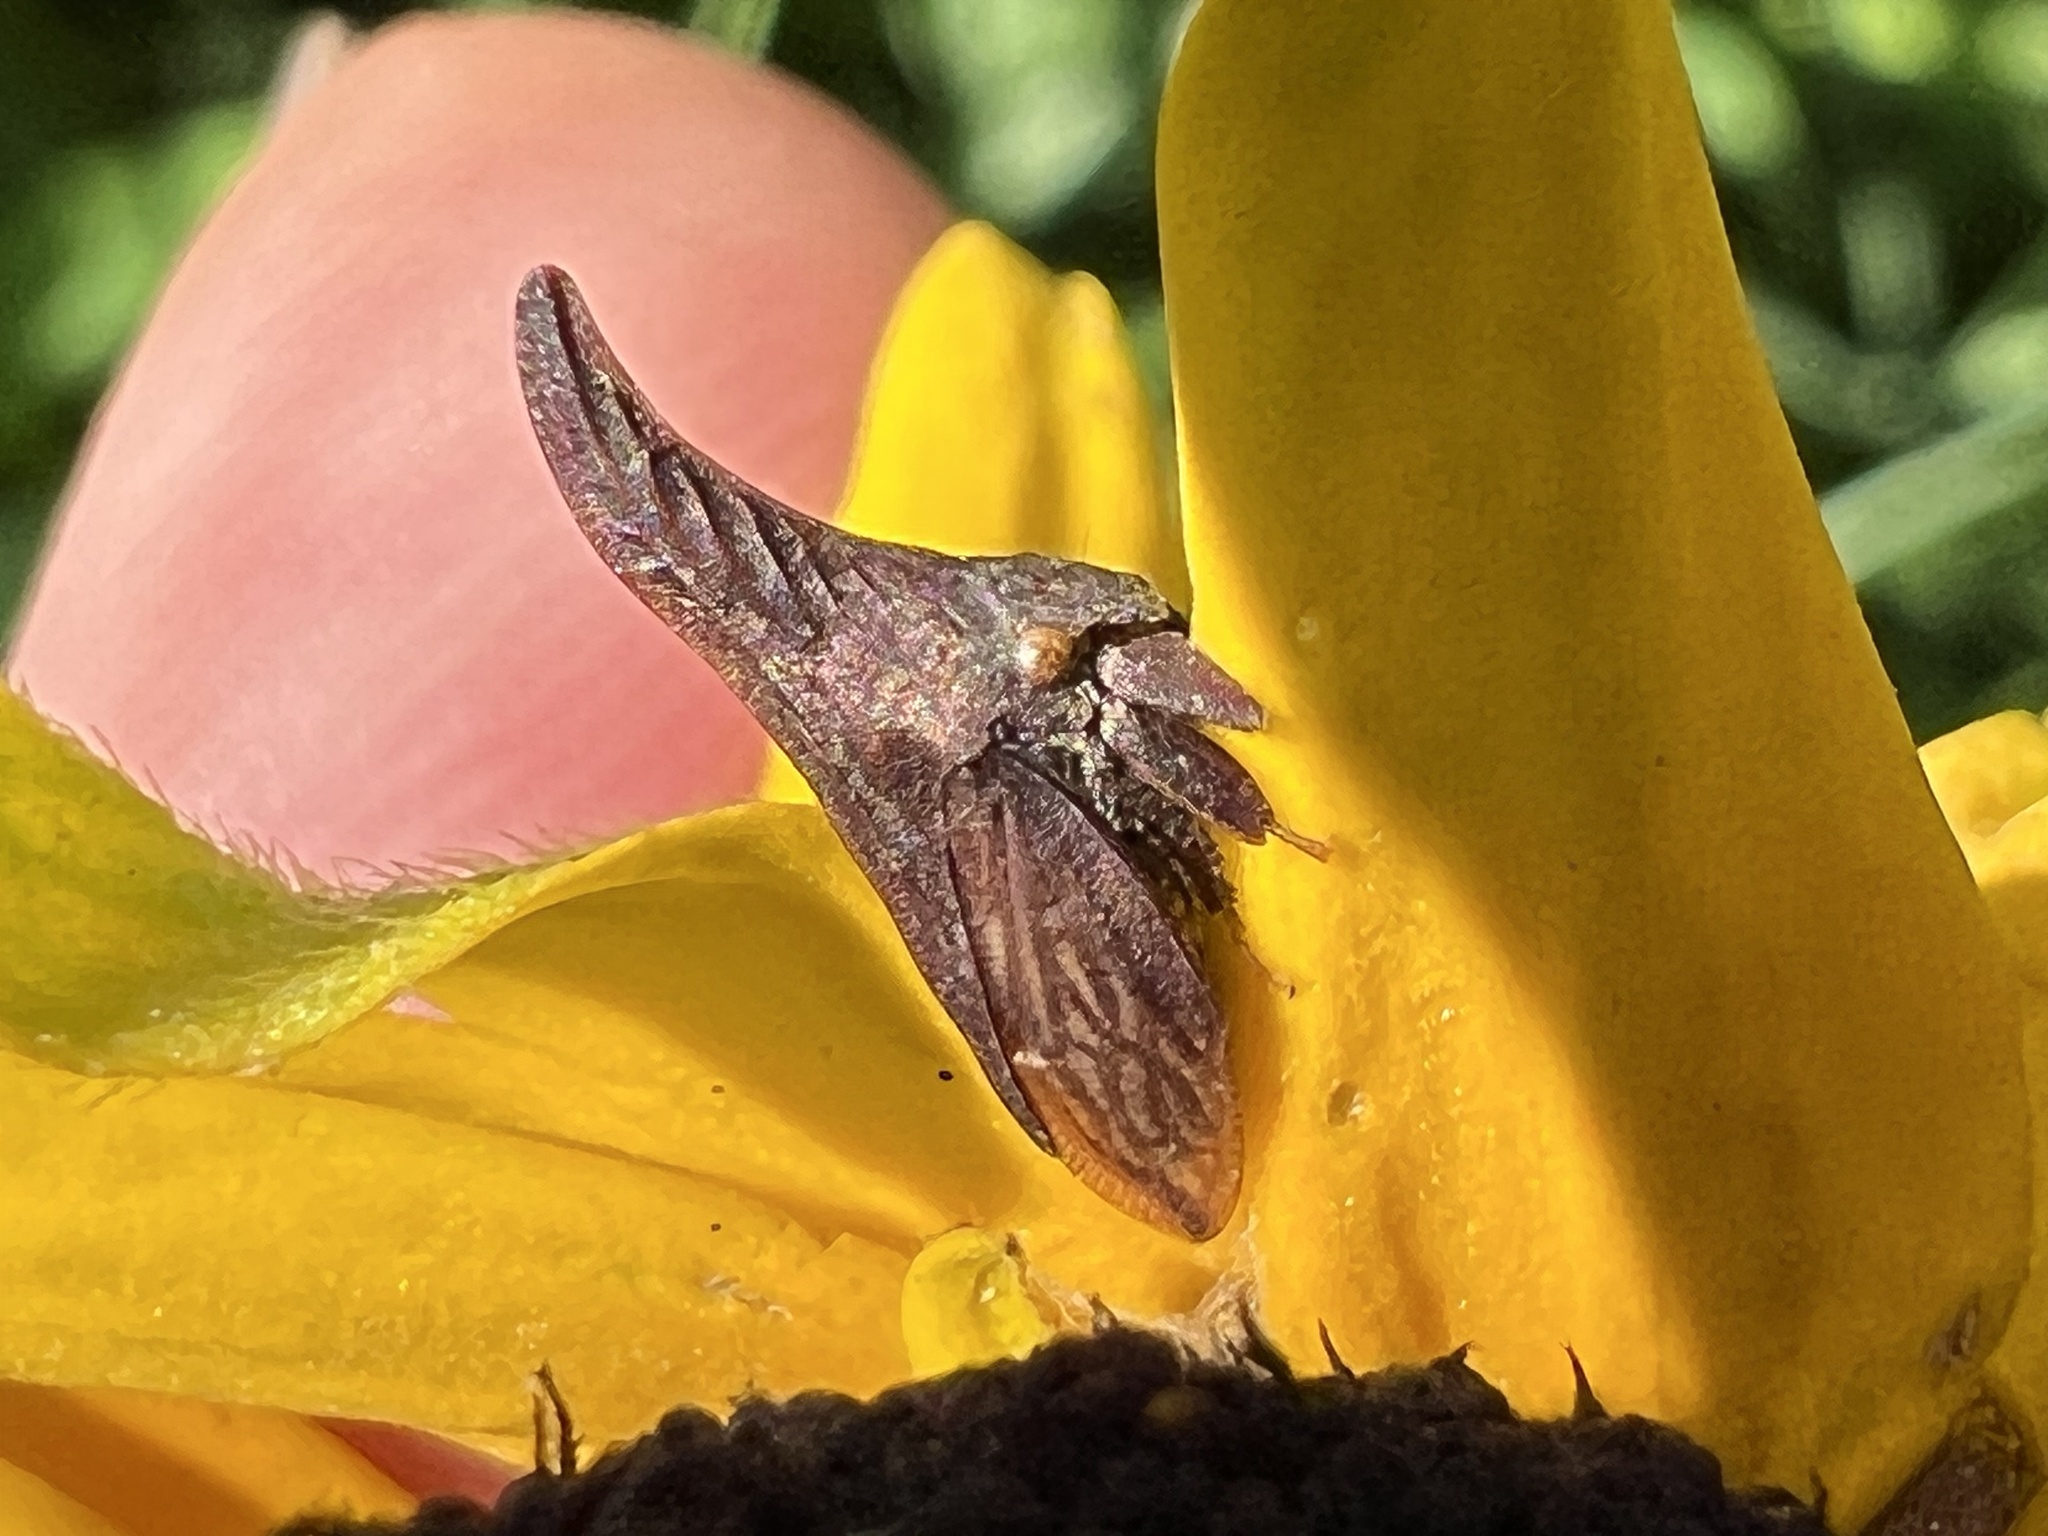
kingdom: Animalia
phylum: Arthropoda
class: Insecta
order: Hemiptera
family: Membracidae
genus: Enchenopa
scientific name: Enchenopa latipes
